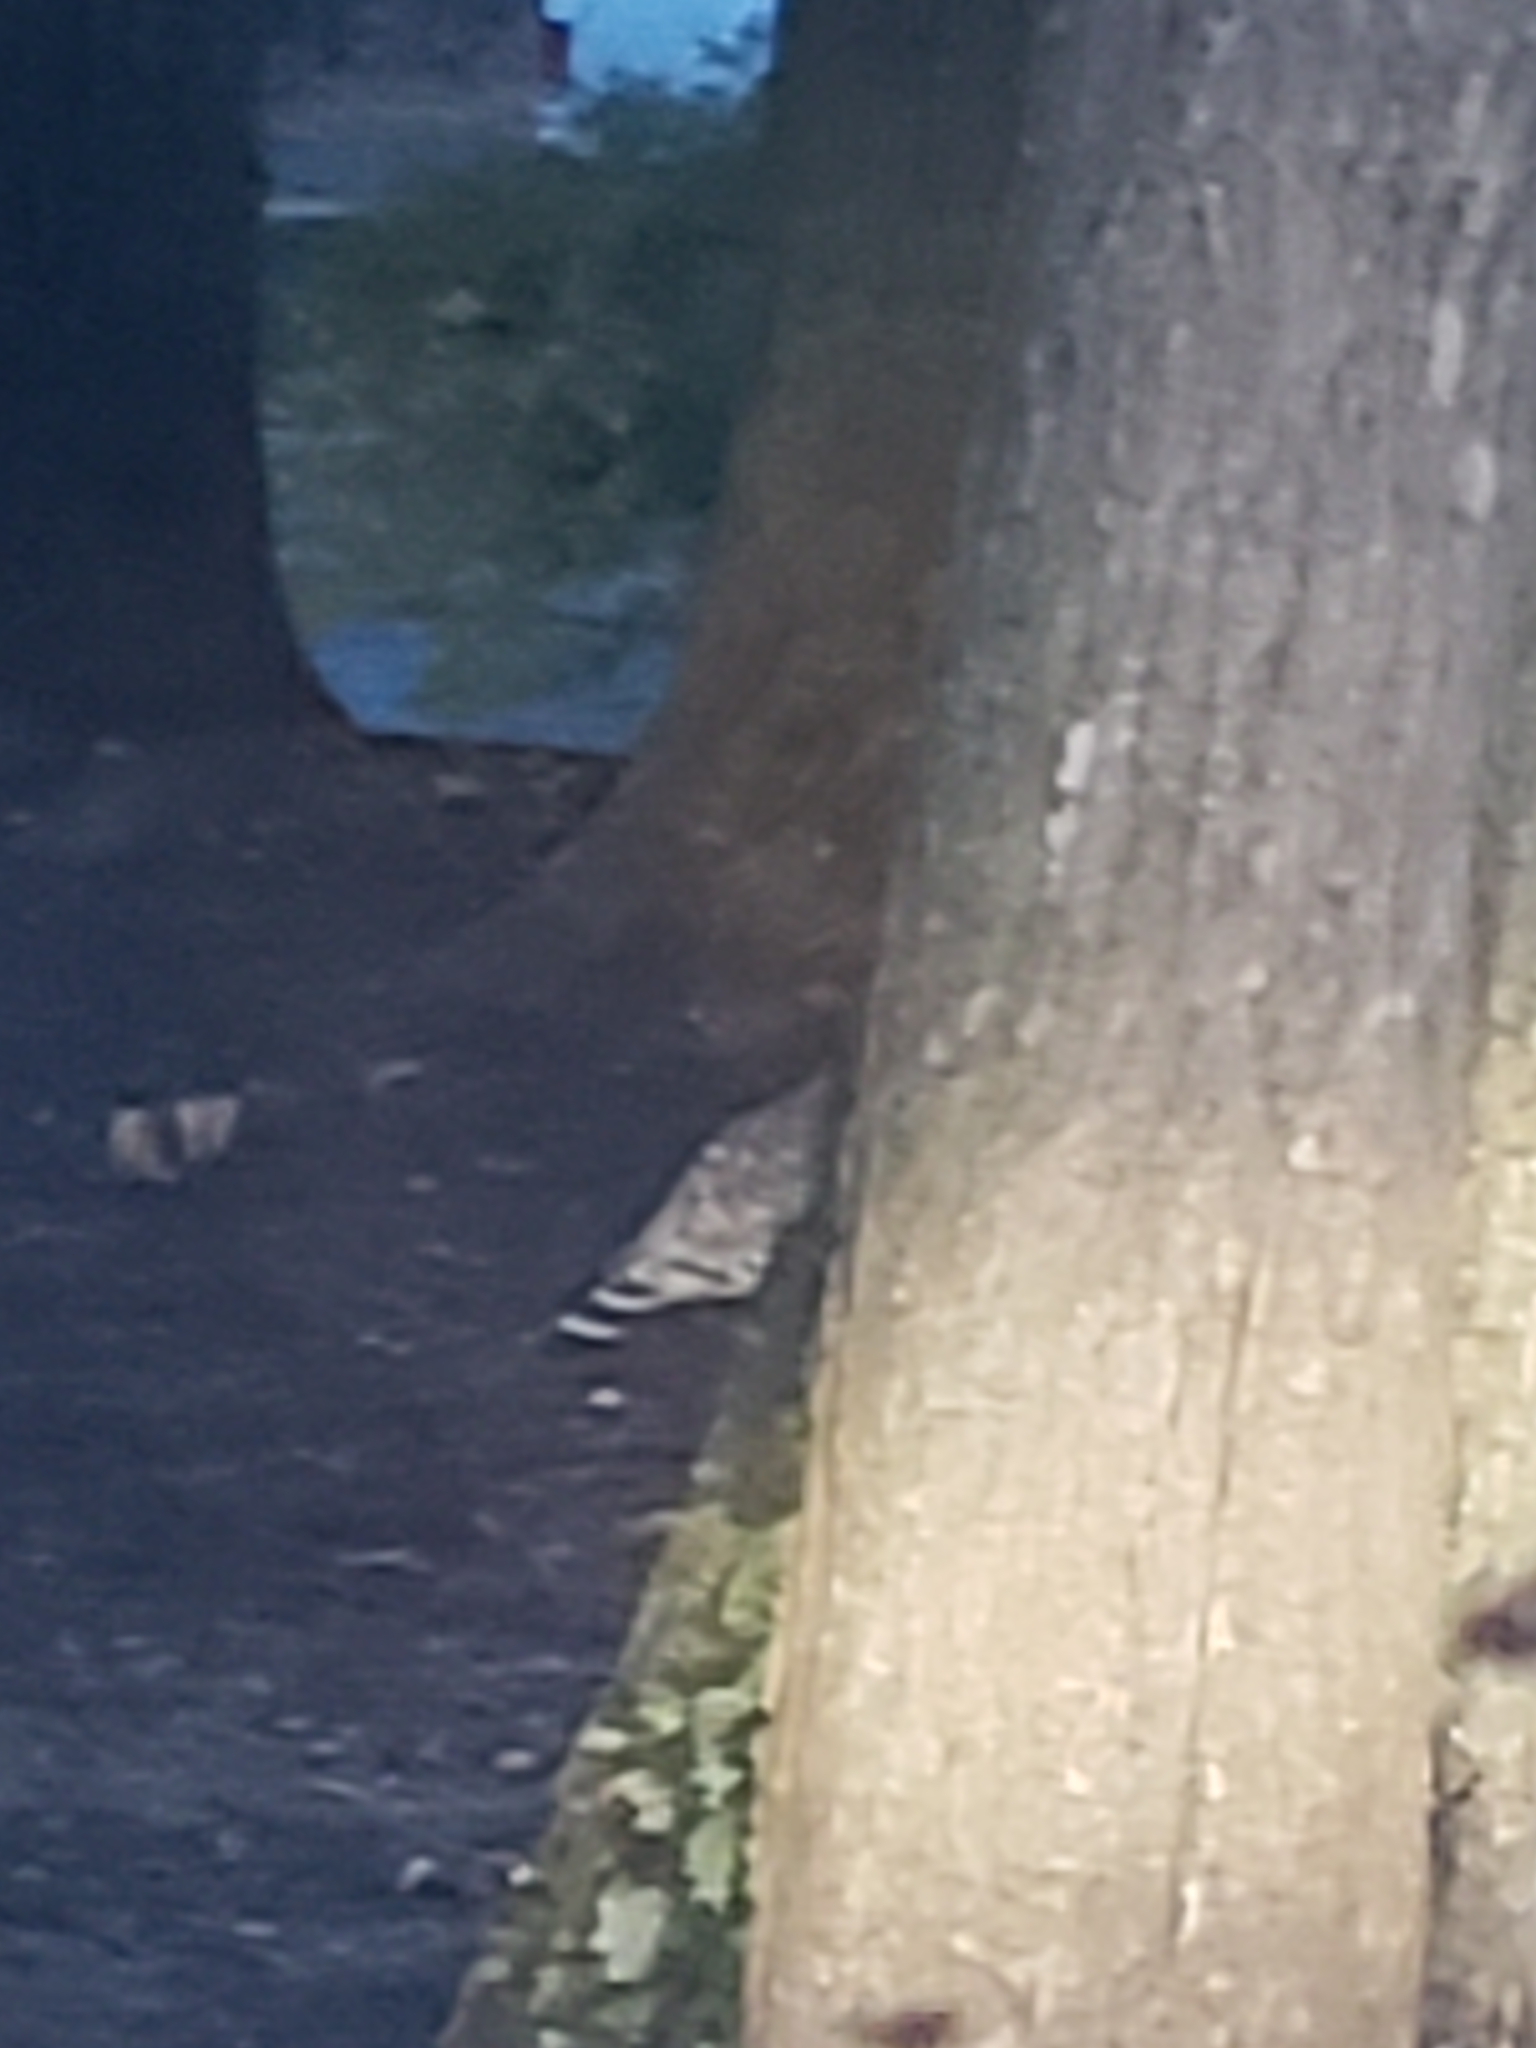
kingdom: Animalia
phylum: Chordata
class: Aves
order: Accipitriformes
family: Accipitridae
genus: Buteo
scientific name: Buteo lineatus
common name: Red-shouldered hawk
